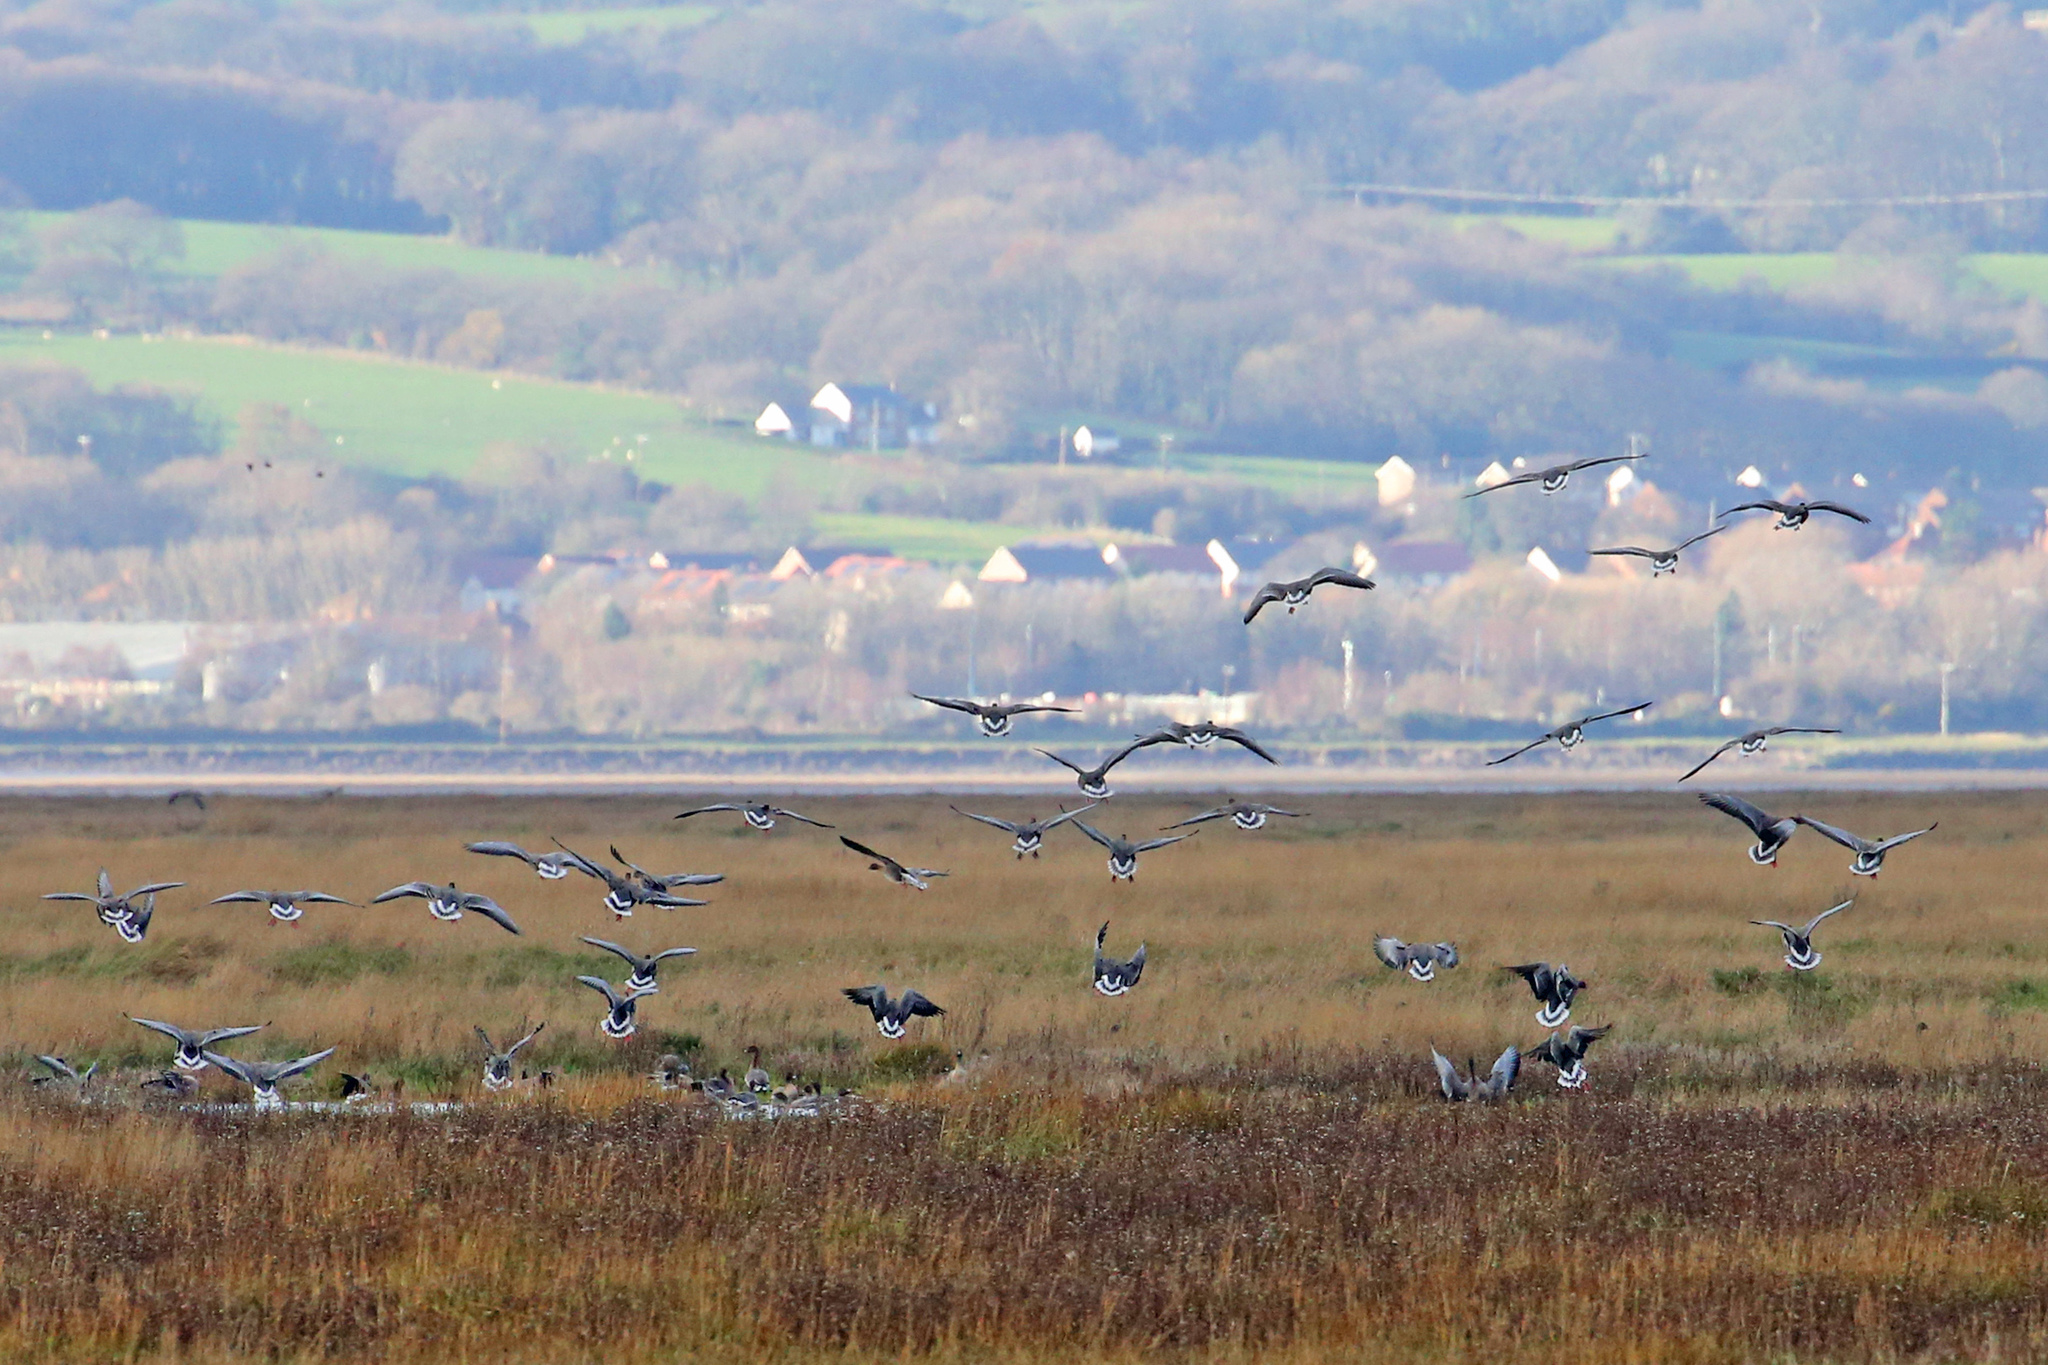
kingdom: Animalia
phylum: Chordata
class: Aves
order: Anseriformes
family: Anatidae
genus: Anser
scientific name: Anser brachyrhynchus
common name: Pink-footed goose
